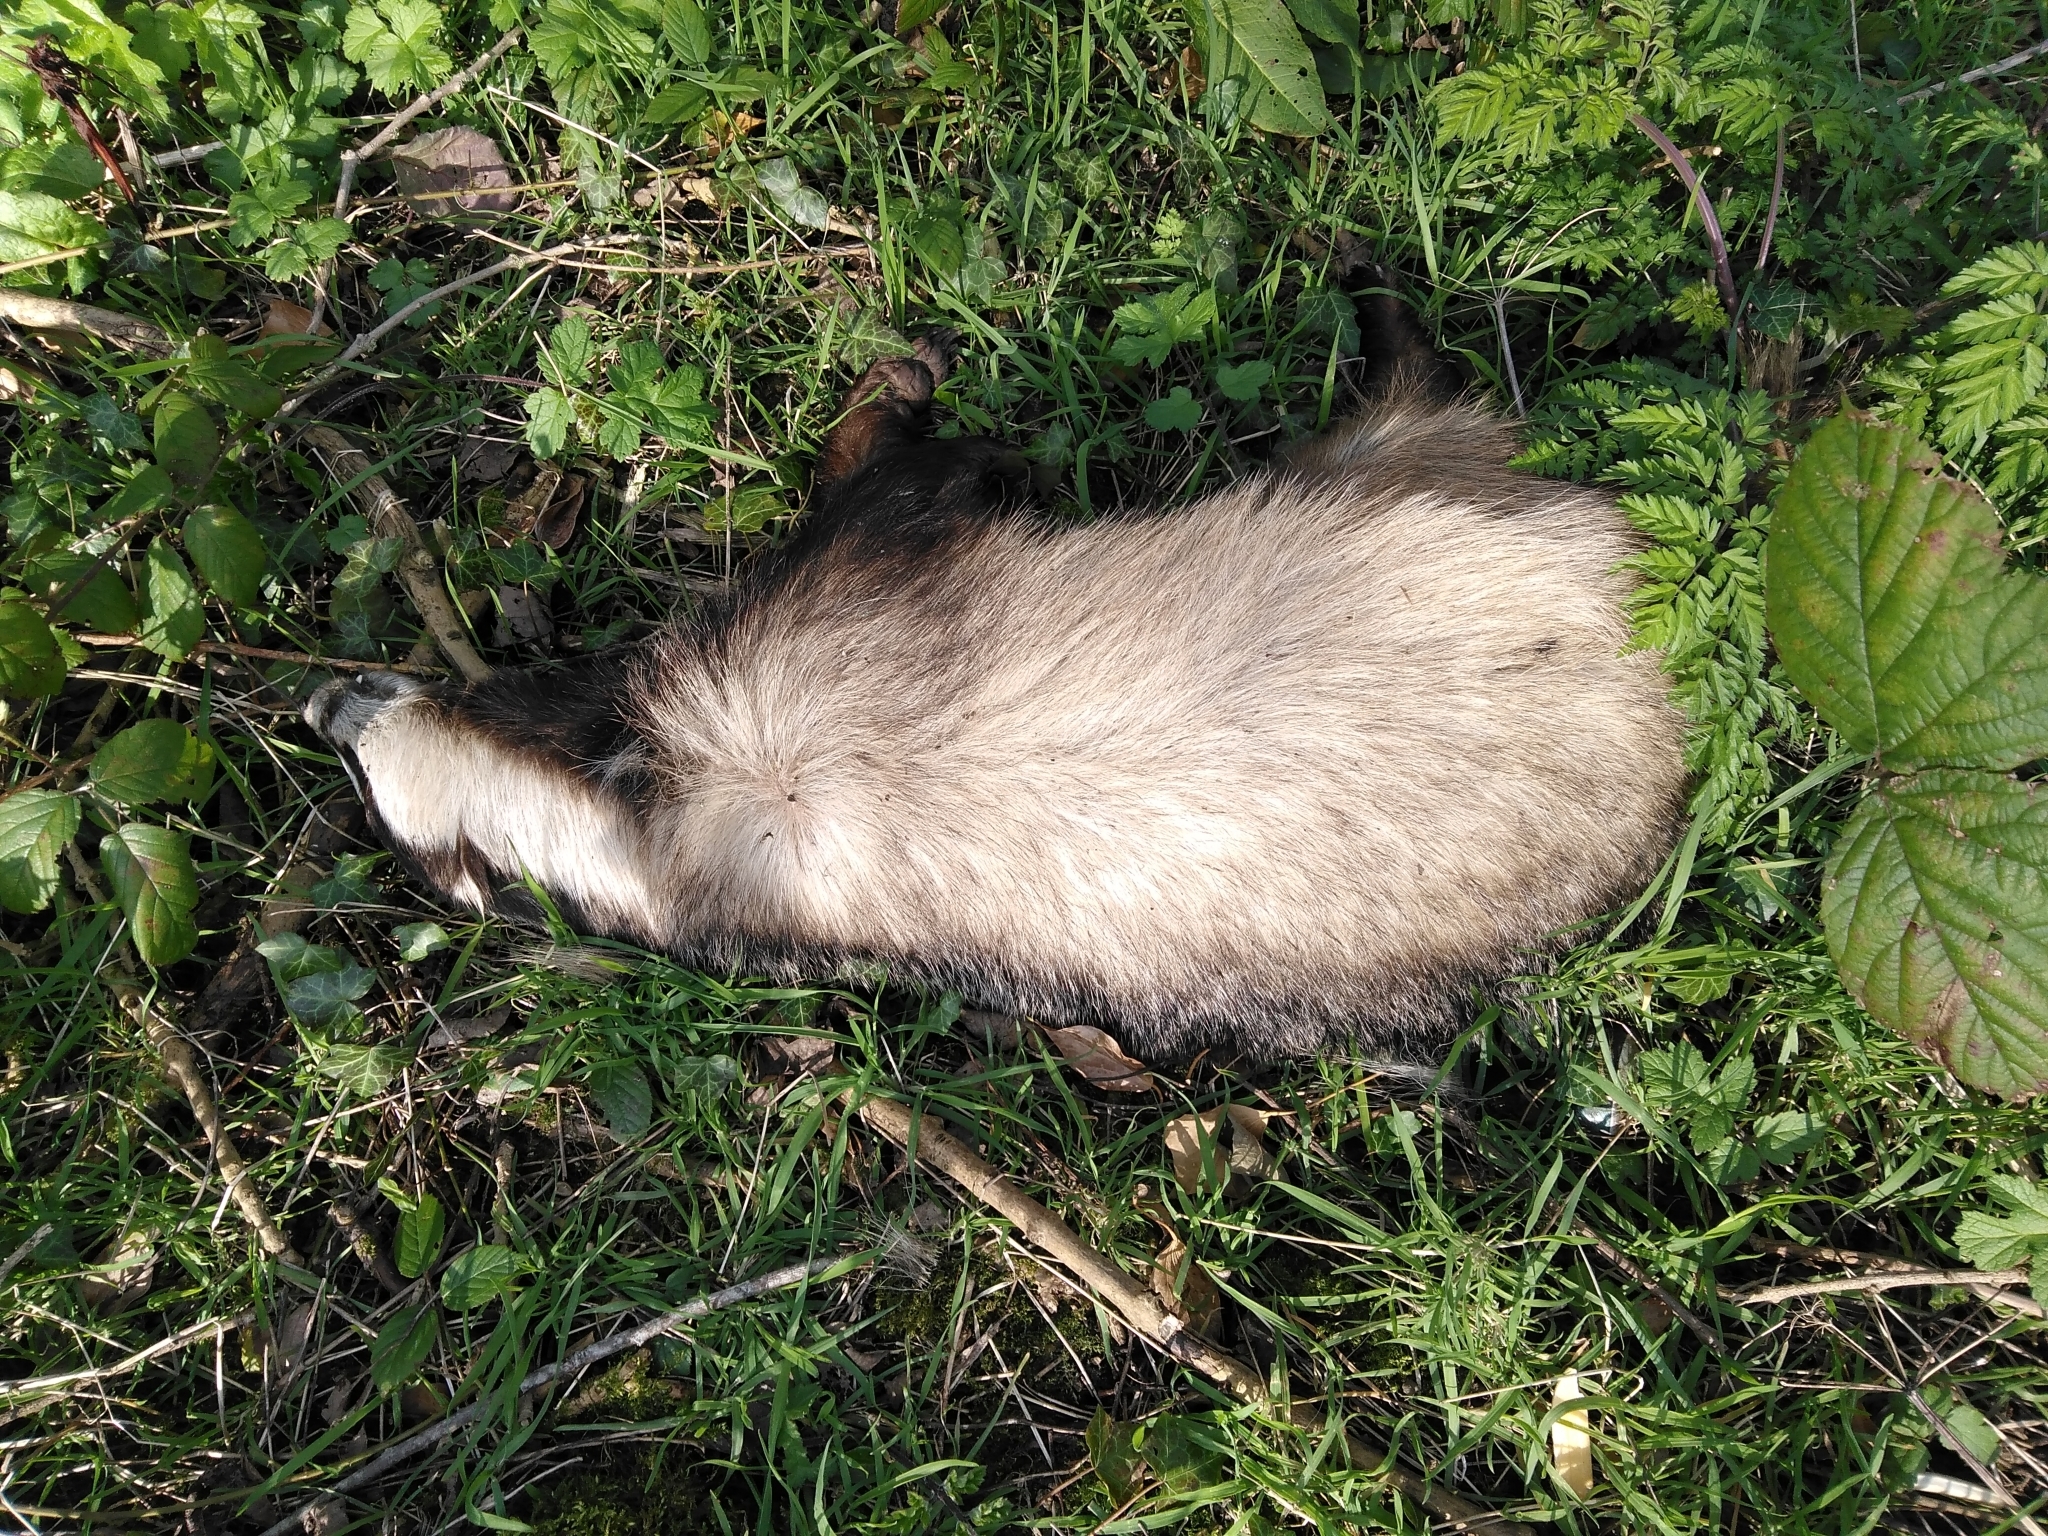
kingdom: Animalia
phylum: Chordata
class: Mammalia
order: Carnivora
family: Mustelidae
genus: Meles
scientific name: Meles meles
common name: Eurasian badger
